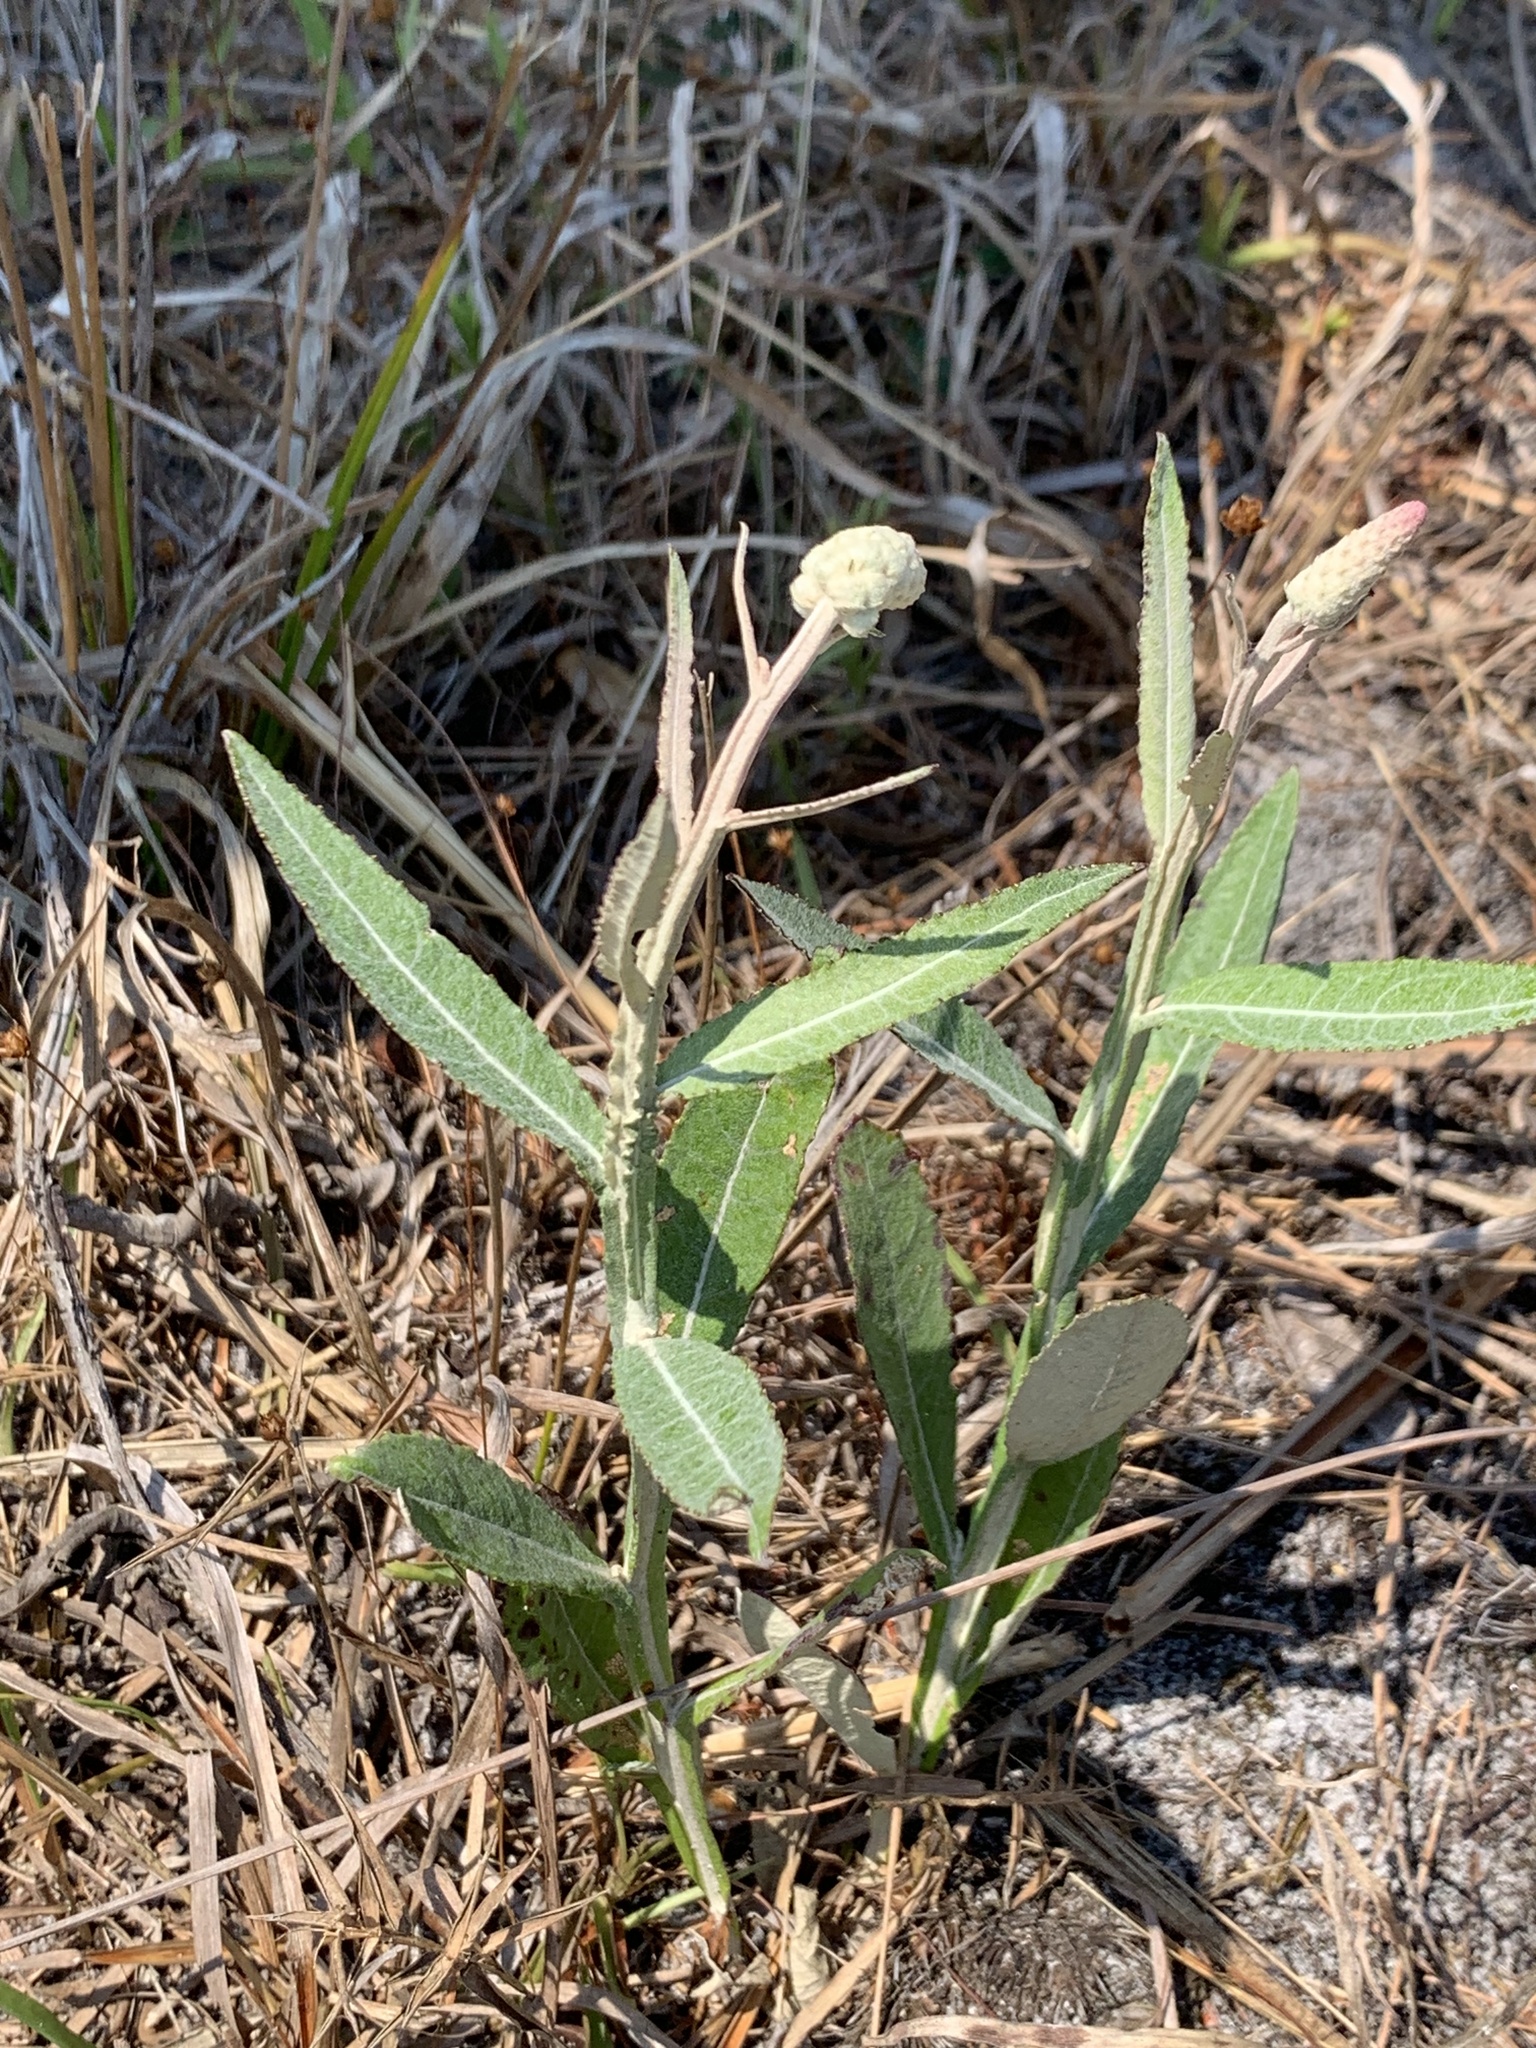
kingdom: Plantae
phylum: Tracheophyta
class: Magnoliopsida
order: Asterales
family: Asteraceae
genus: Pterocaulon
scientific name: Pterocaulon pycnostachyum
